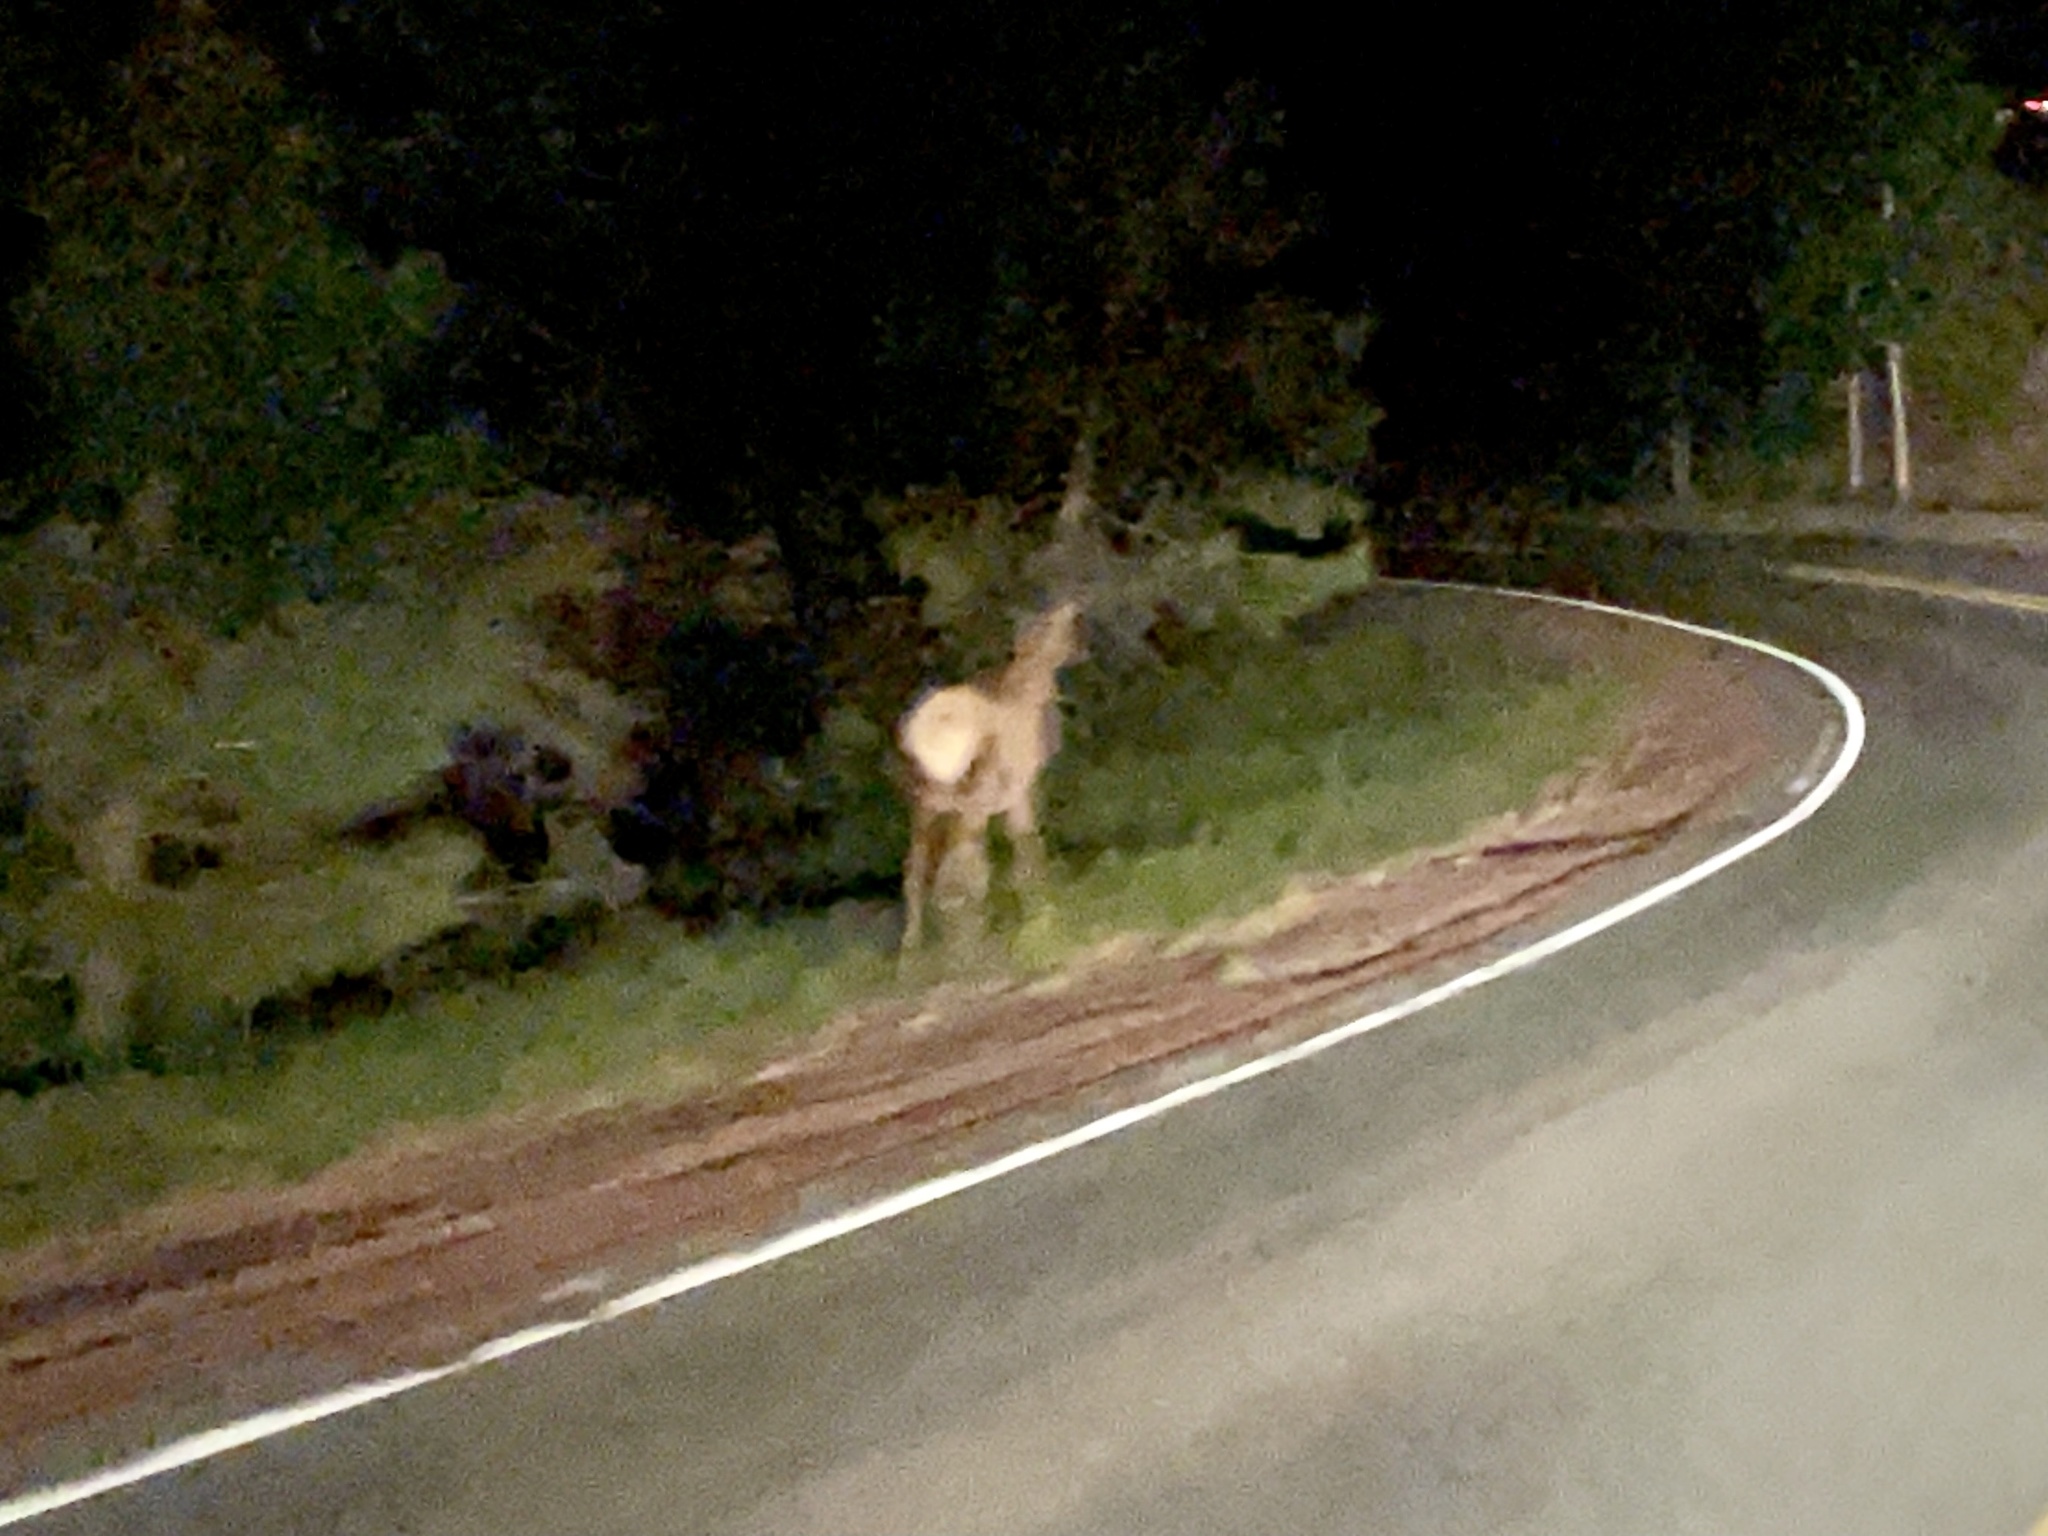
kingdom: Animalia
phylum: Chordata
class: Mammalia
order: Artiodactyla
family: Cervidae
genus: Cervus
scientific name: Cervus elaphus
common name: Red deer
